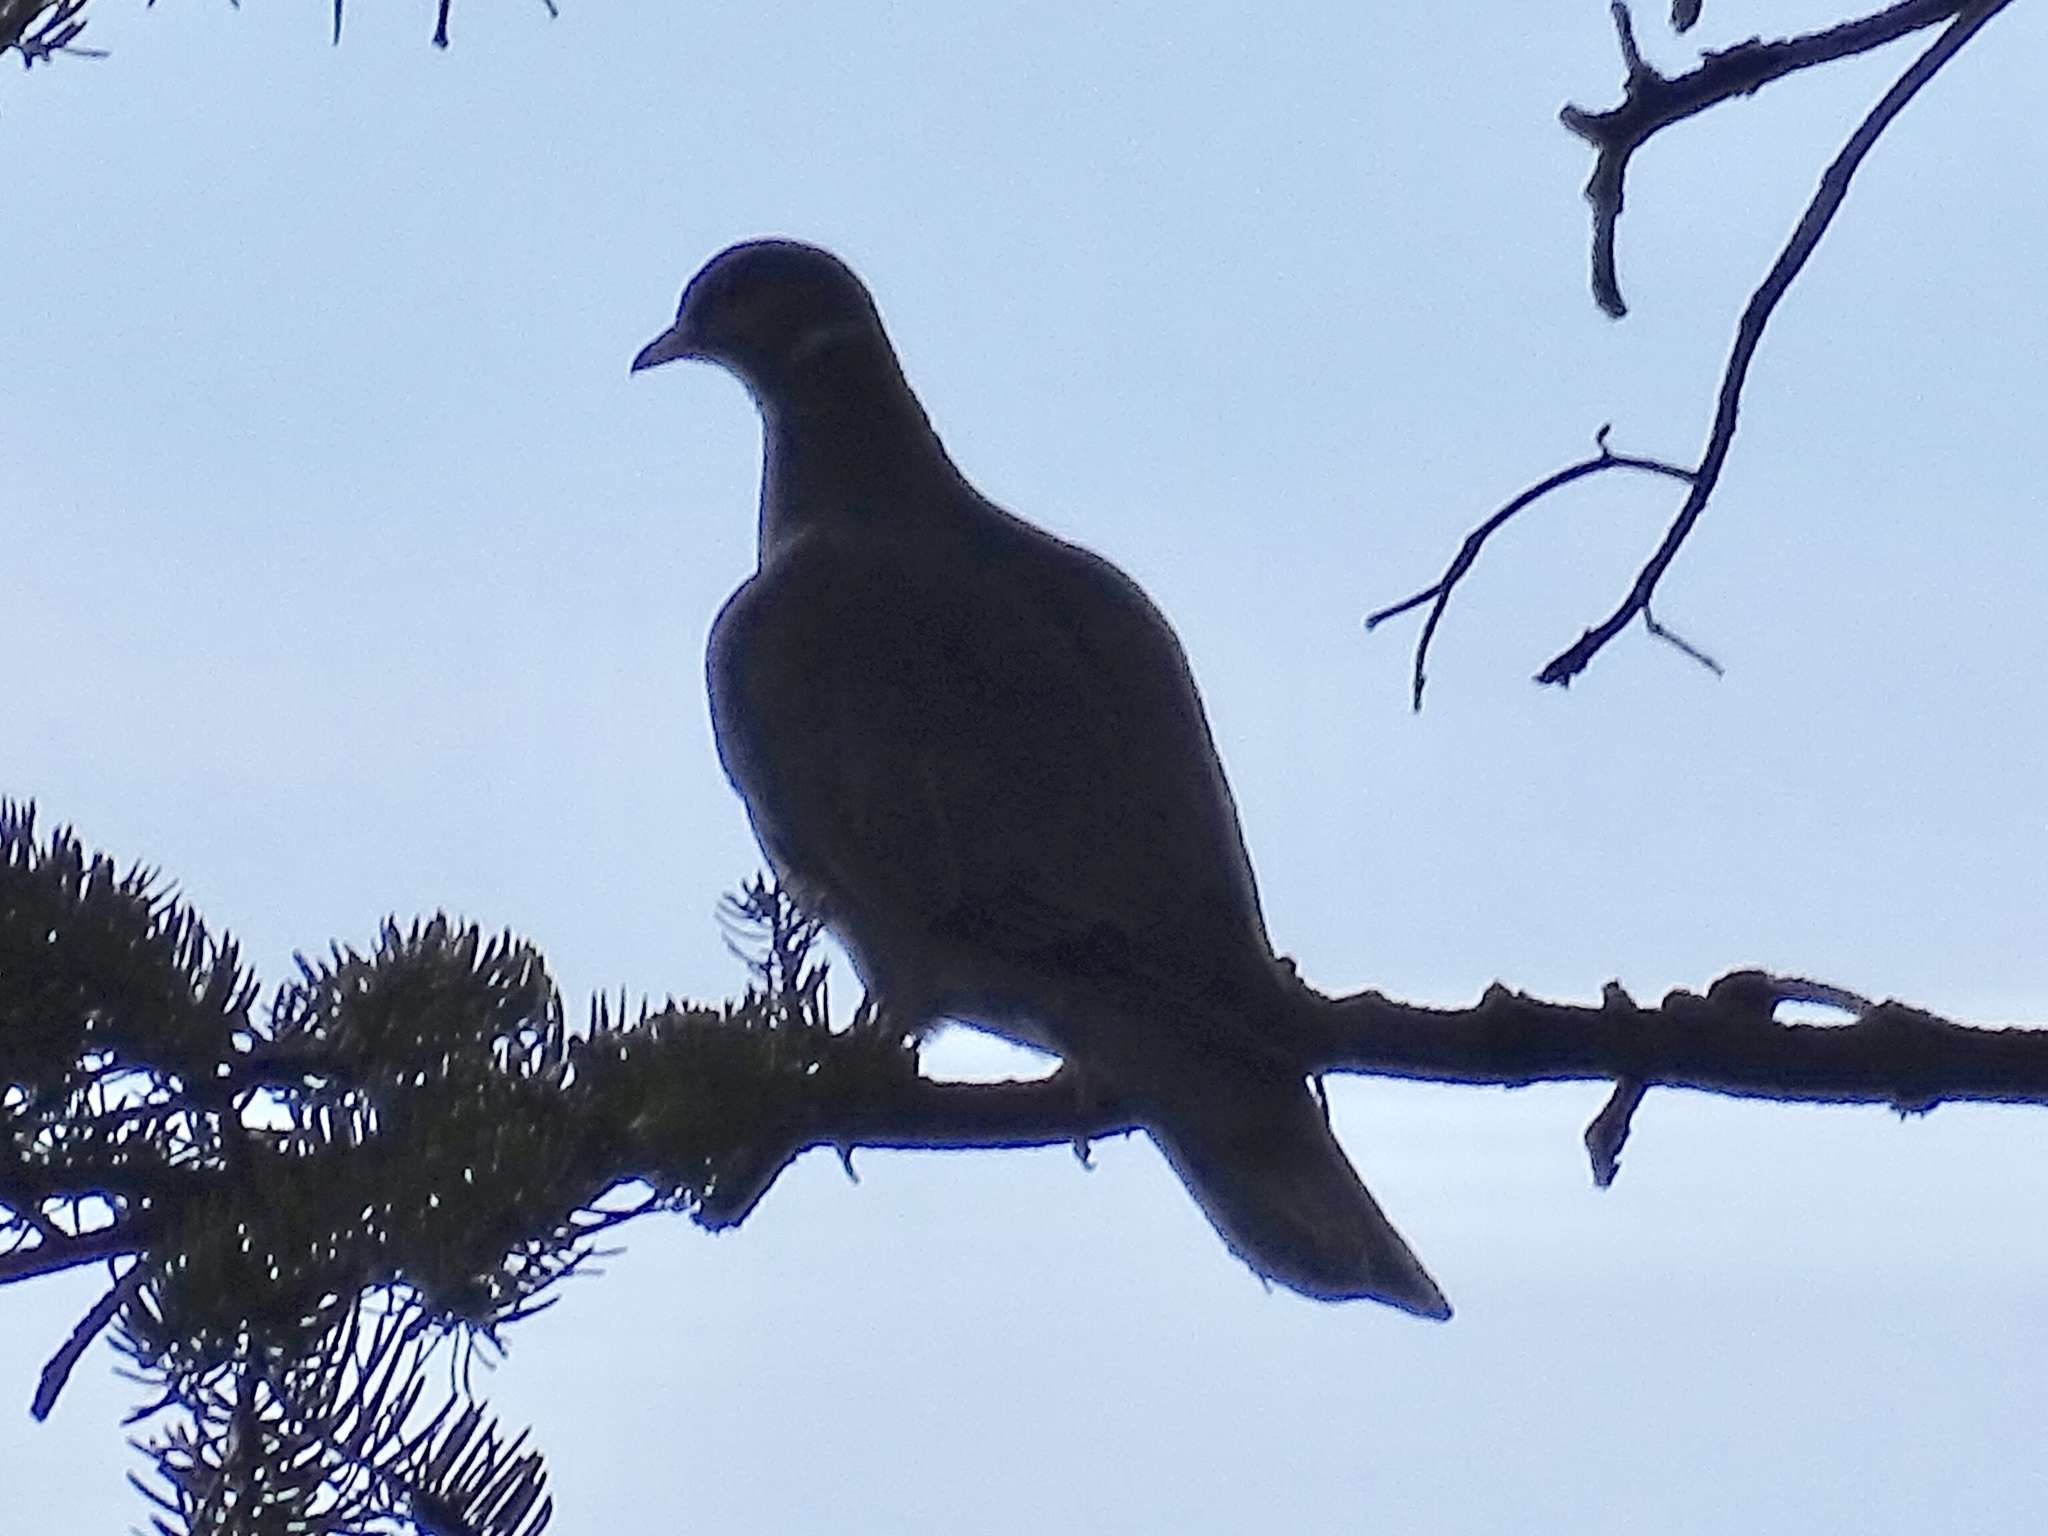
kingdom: Animalia
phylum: Chordata
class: Aves
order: Columbiformes
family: Columbidae
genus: Patagioenas
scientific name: Patagioenas fasciata
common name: Band-tailed pigeon
